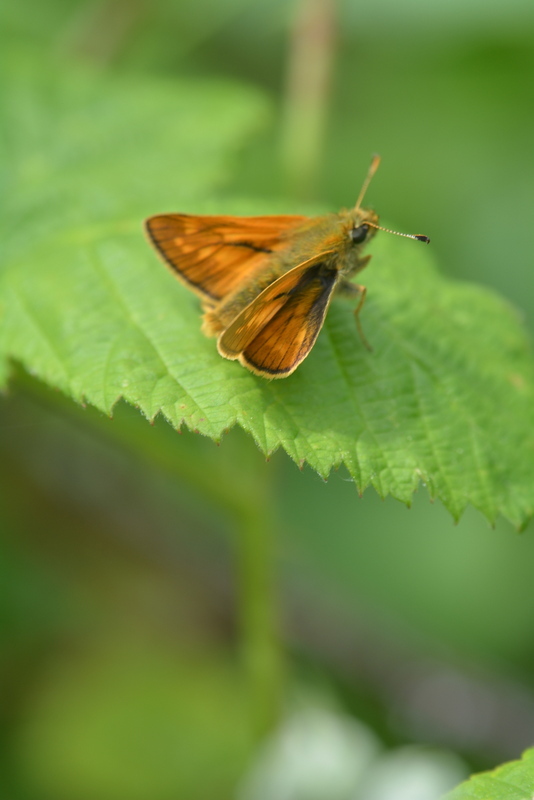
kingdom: Animalia
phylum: Arthropoda
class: Insecta
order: Lepidoptera
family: Hesperiidae
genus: Ochlodes
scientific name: Ochlodes venata
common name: Large skipper
